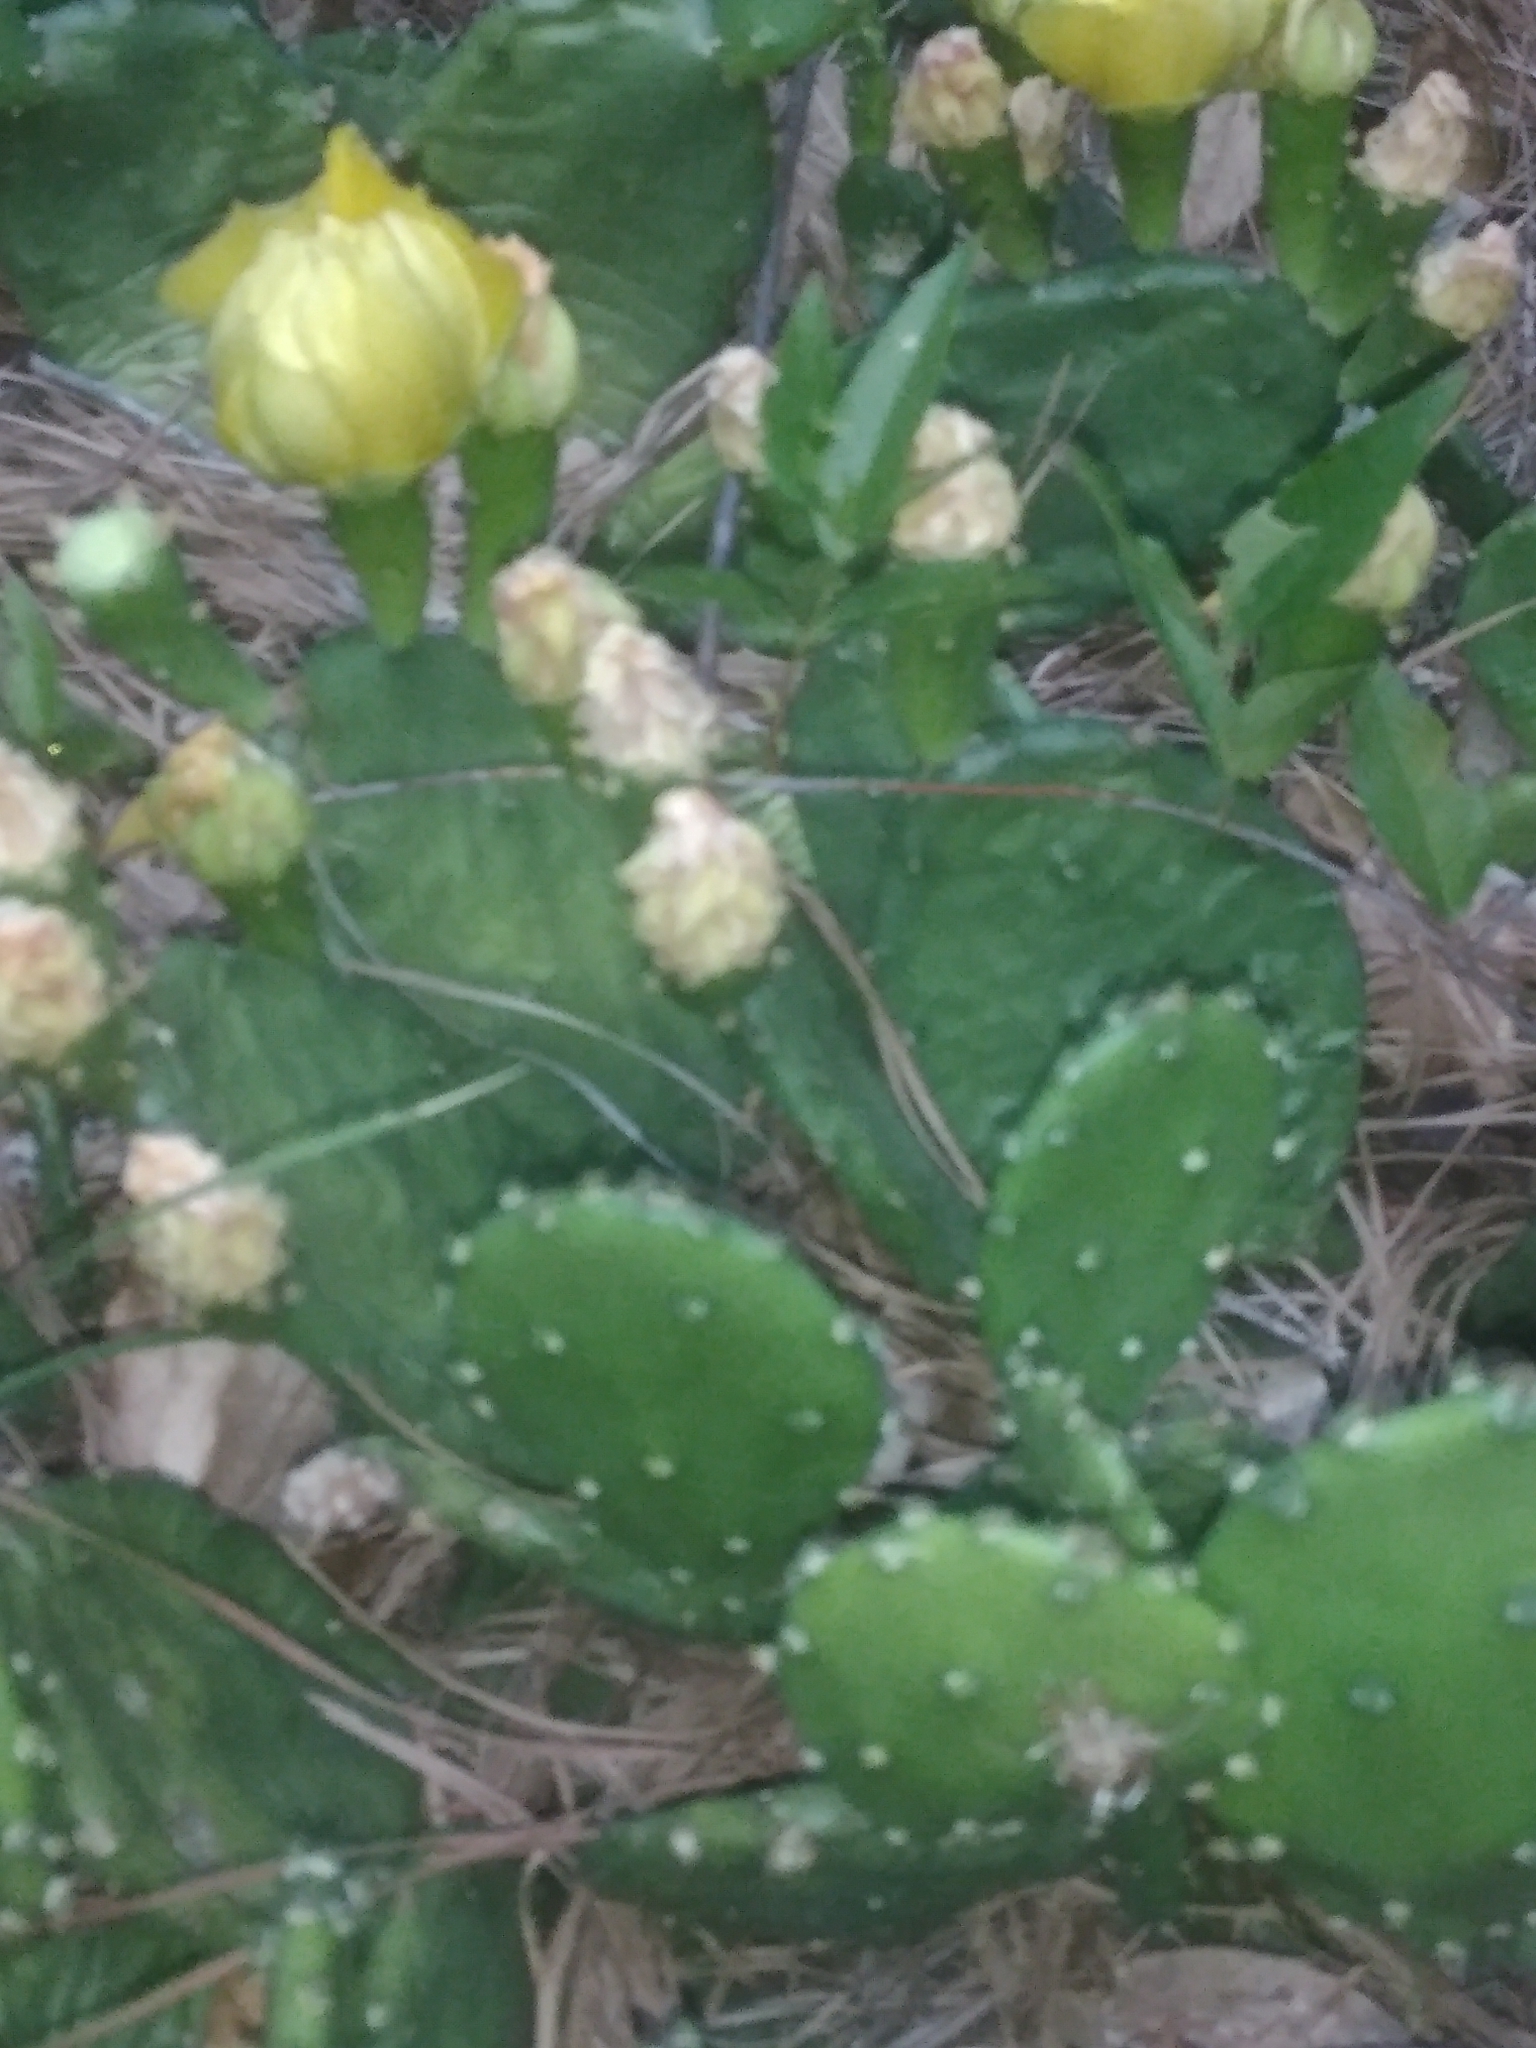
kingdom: Plantae
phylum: Tracheophyta
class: Magnoliopsida
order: Caryophyllales
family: Cactaceae
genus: Opuntia
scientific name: Opuntia humifusa
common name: Eastern prickly-pear
